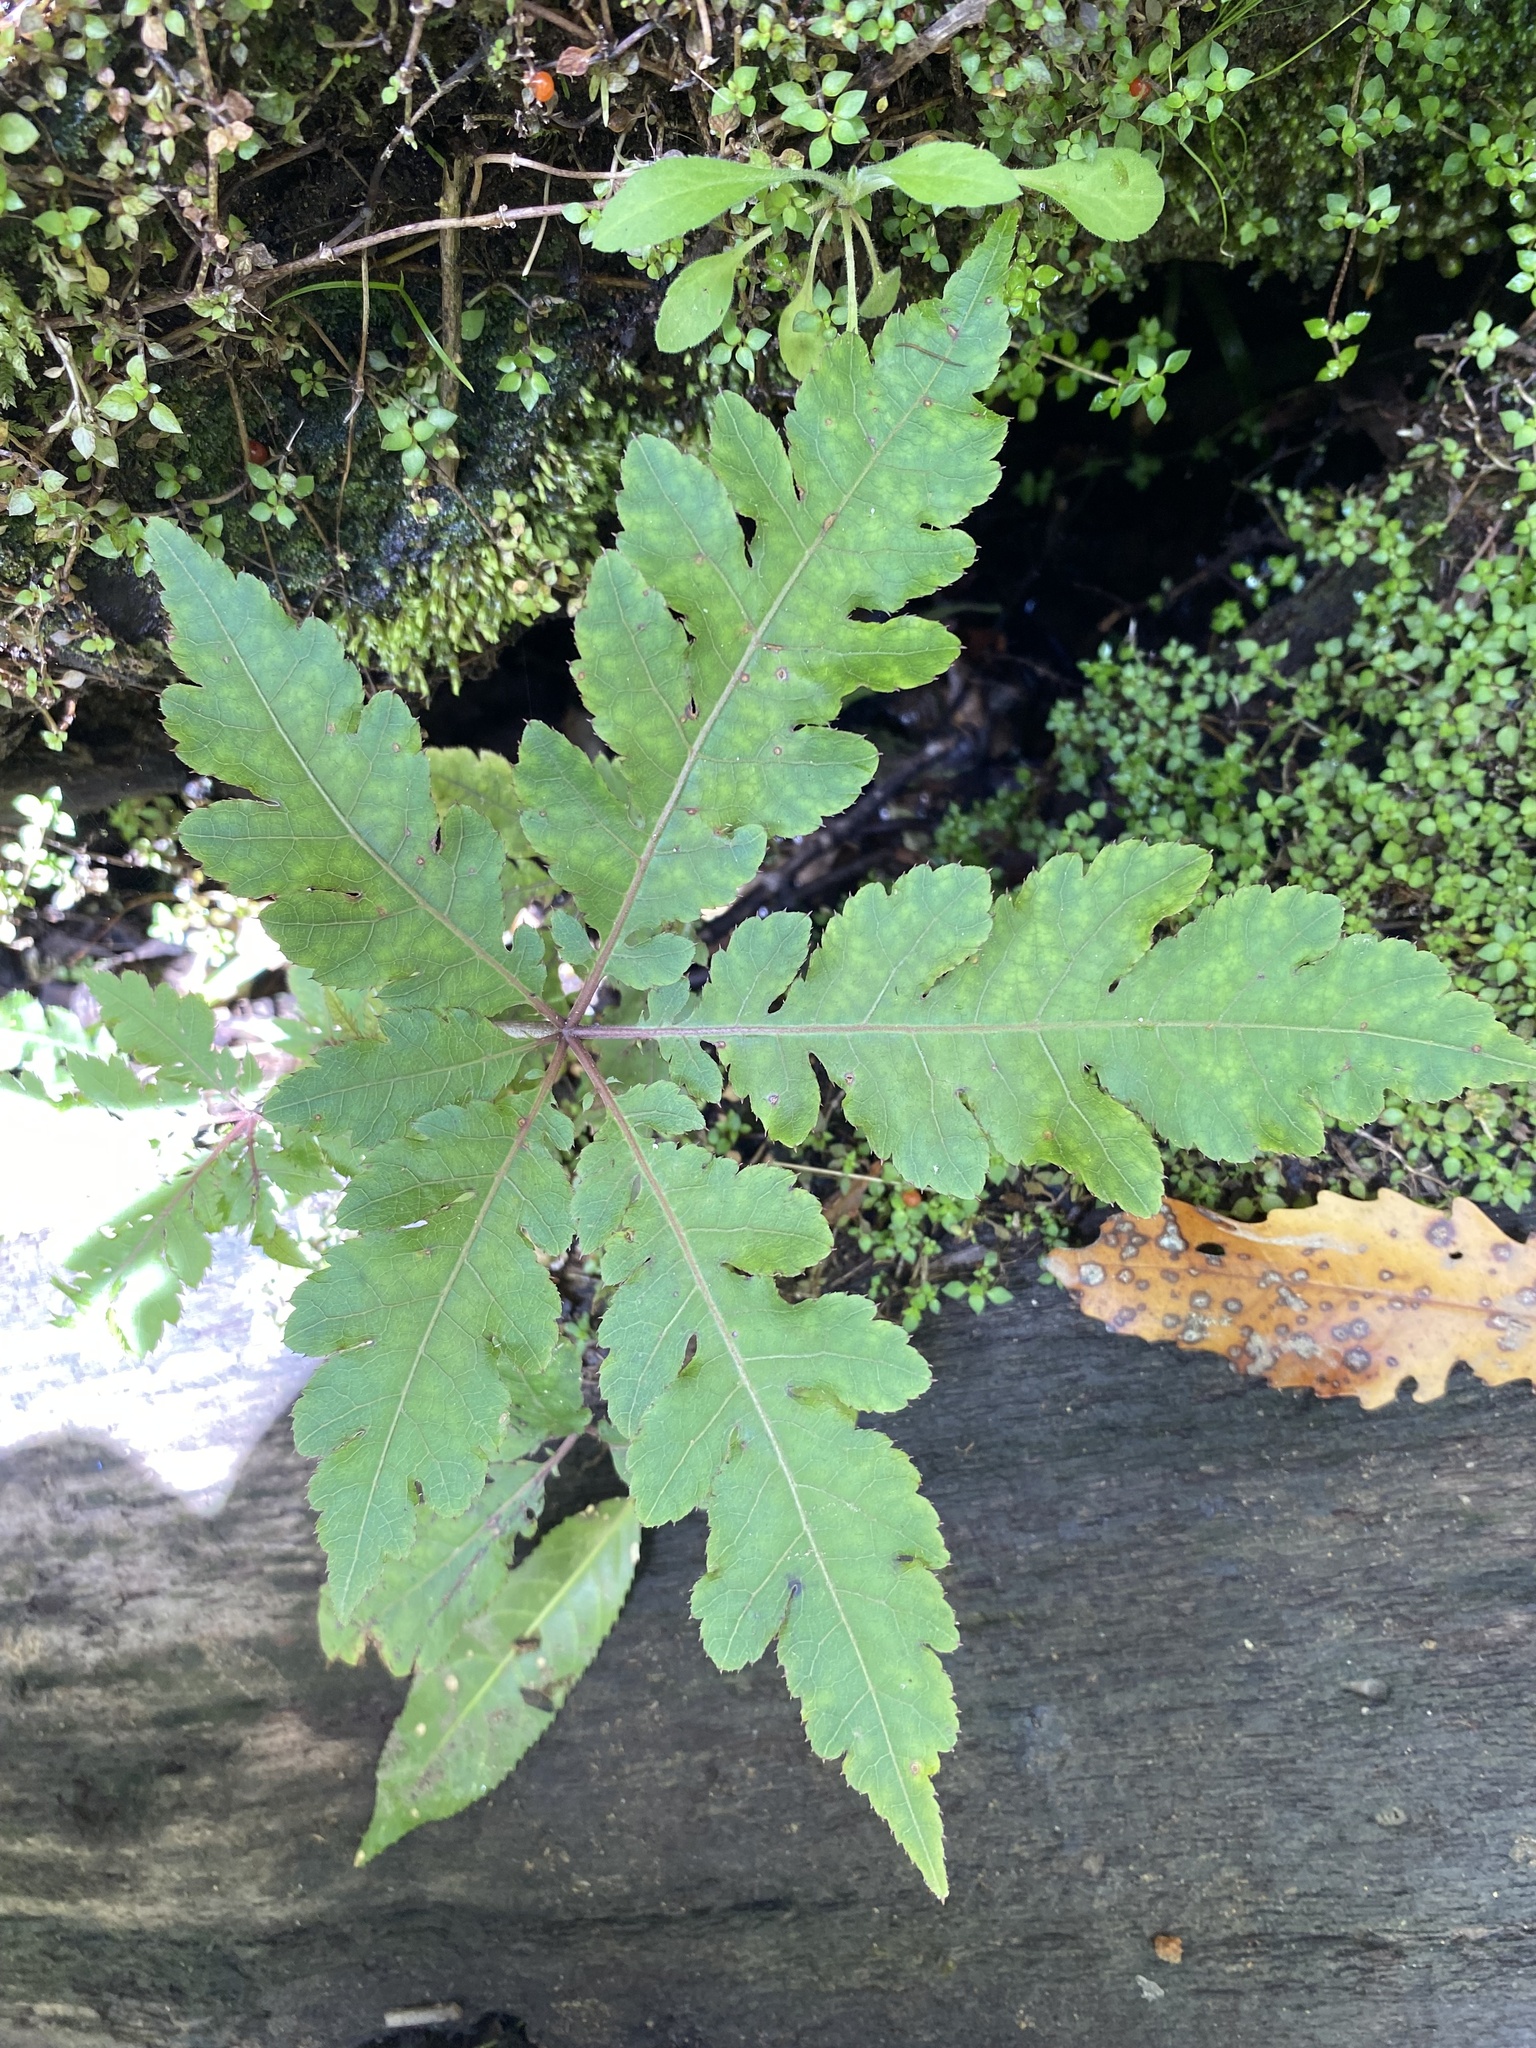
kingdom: Plantae
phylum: Tracheophyta
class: Magnoliopsida
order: Apiales
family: Araliaceae
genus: Schefflera
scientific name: Schefflera digitata
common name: Pate
